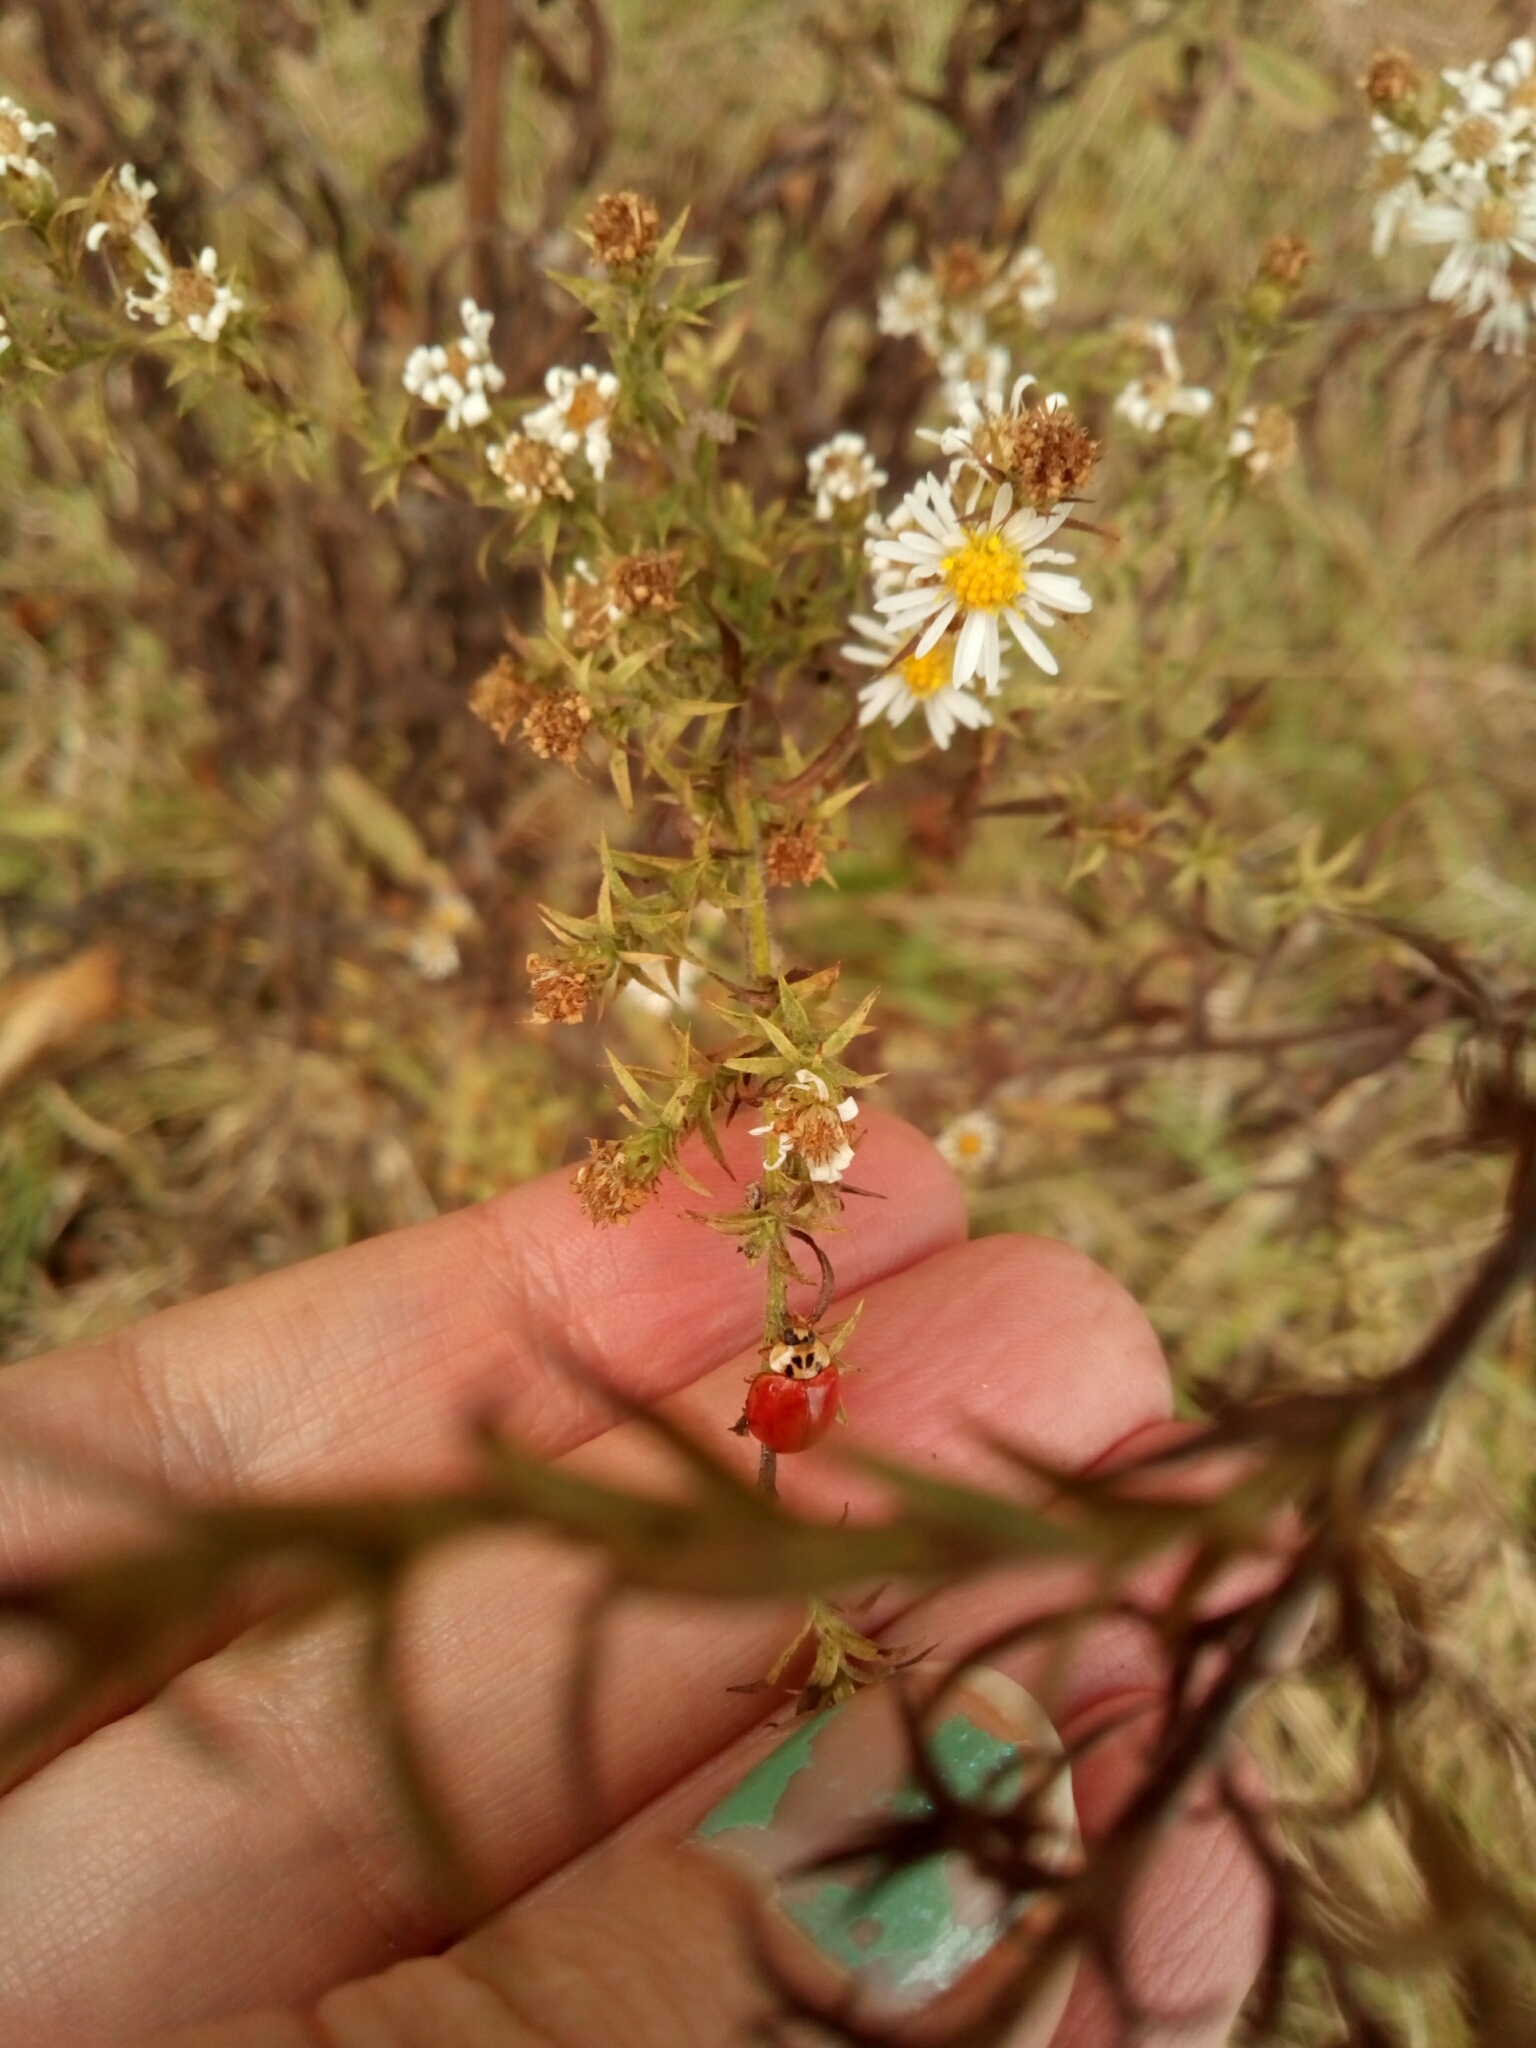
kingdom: Animalia
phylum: Arthropoda
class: Insecta
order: Coleoptera
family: Coccinellidae
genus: Harmonia
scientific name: Harmonia axyridis
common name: Harlequin ladybird
